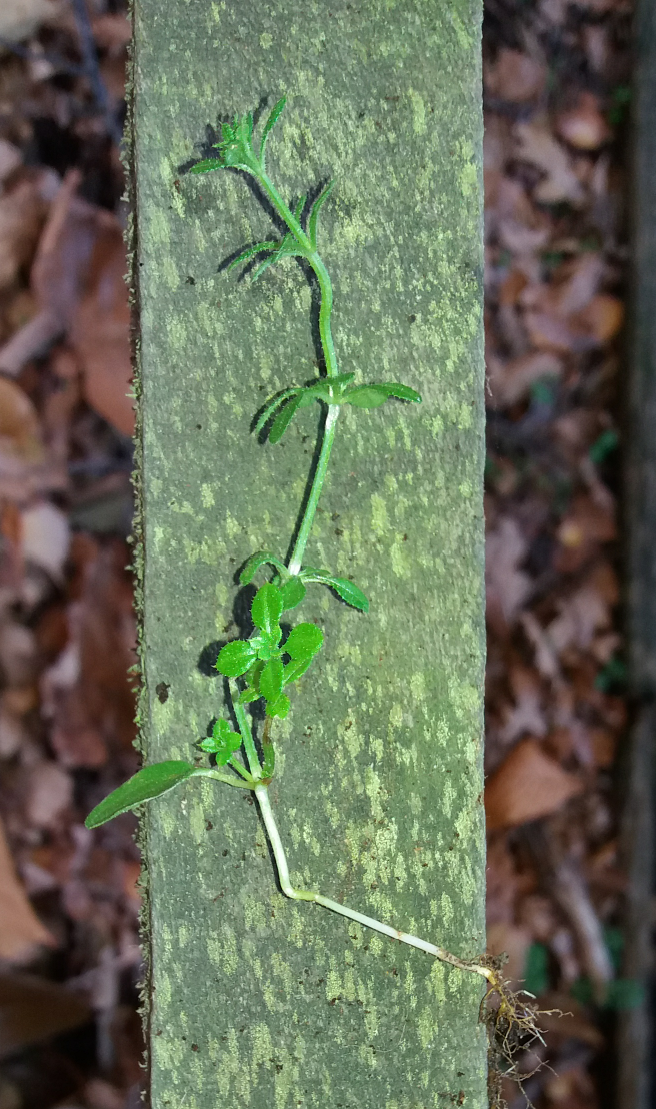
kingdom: Plantae
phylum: Tracheophyta
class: Magnoliopsida
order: Gentianales
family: Rubiaceae
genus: Galium
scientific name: Galium aparine
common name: Cleavers
